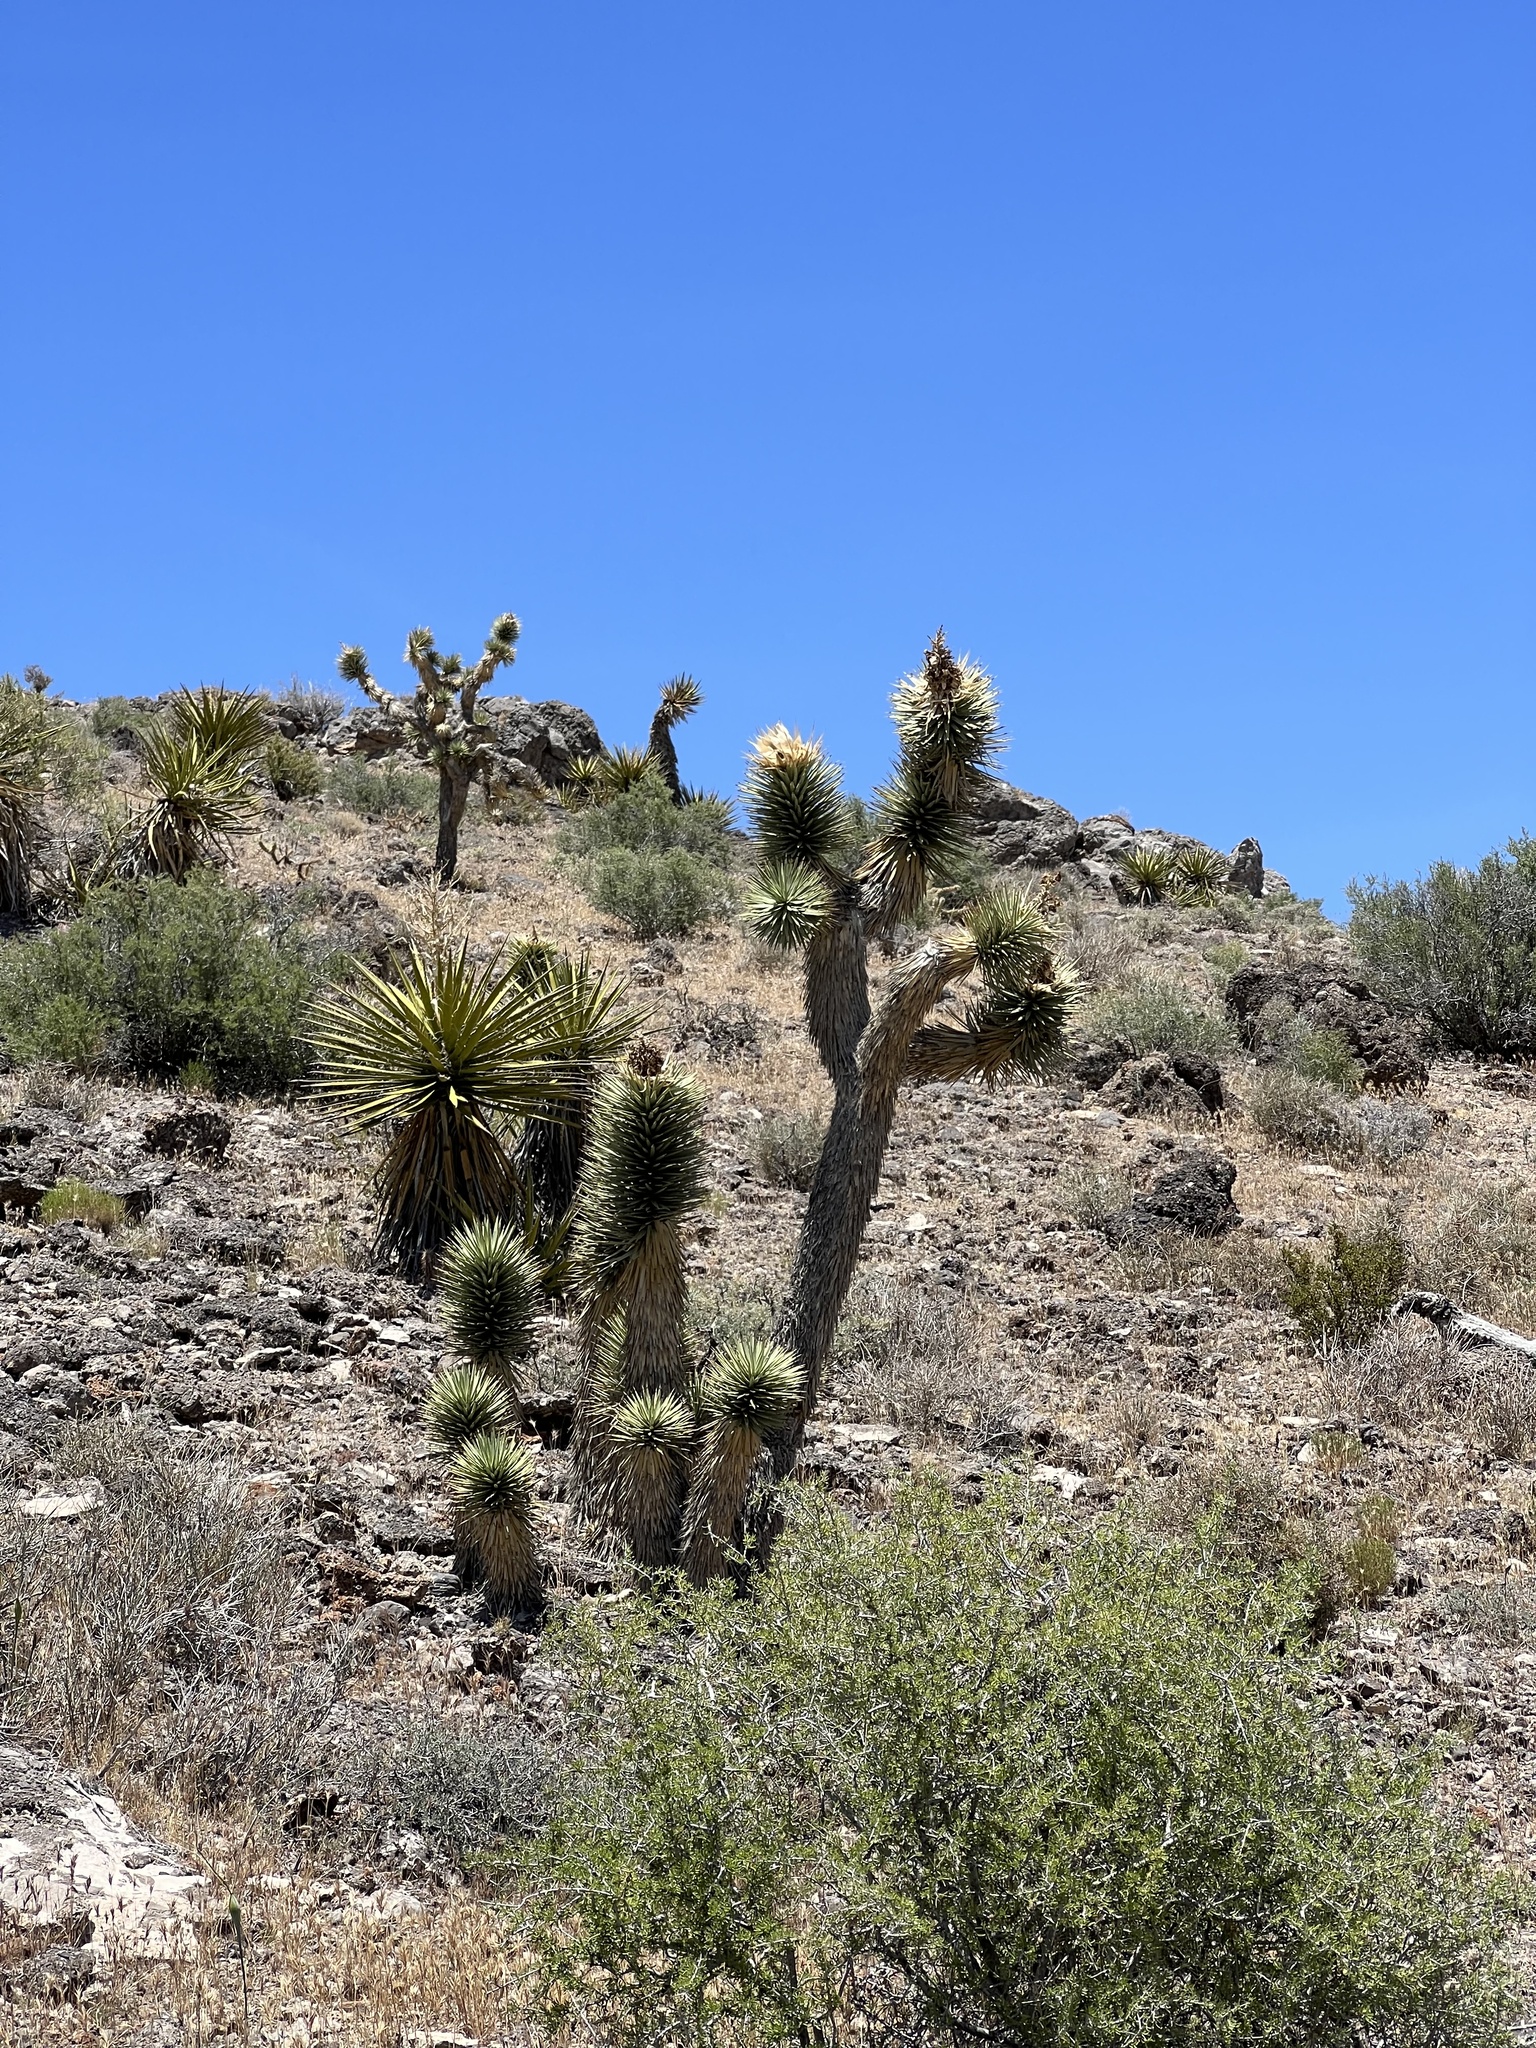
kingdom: Plantae
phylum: Tracheophyta
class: Liliopsida
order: Asparagales
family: Asparagaceae
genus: Yucca
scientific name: Yucca brevifolia
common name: Joshua tree
